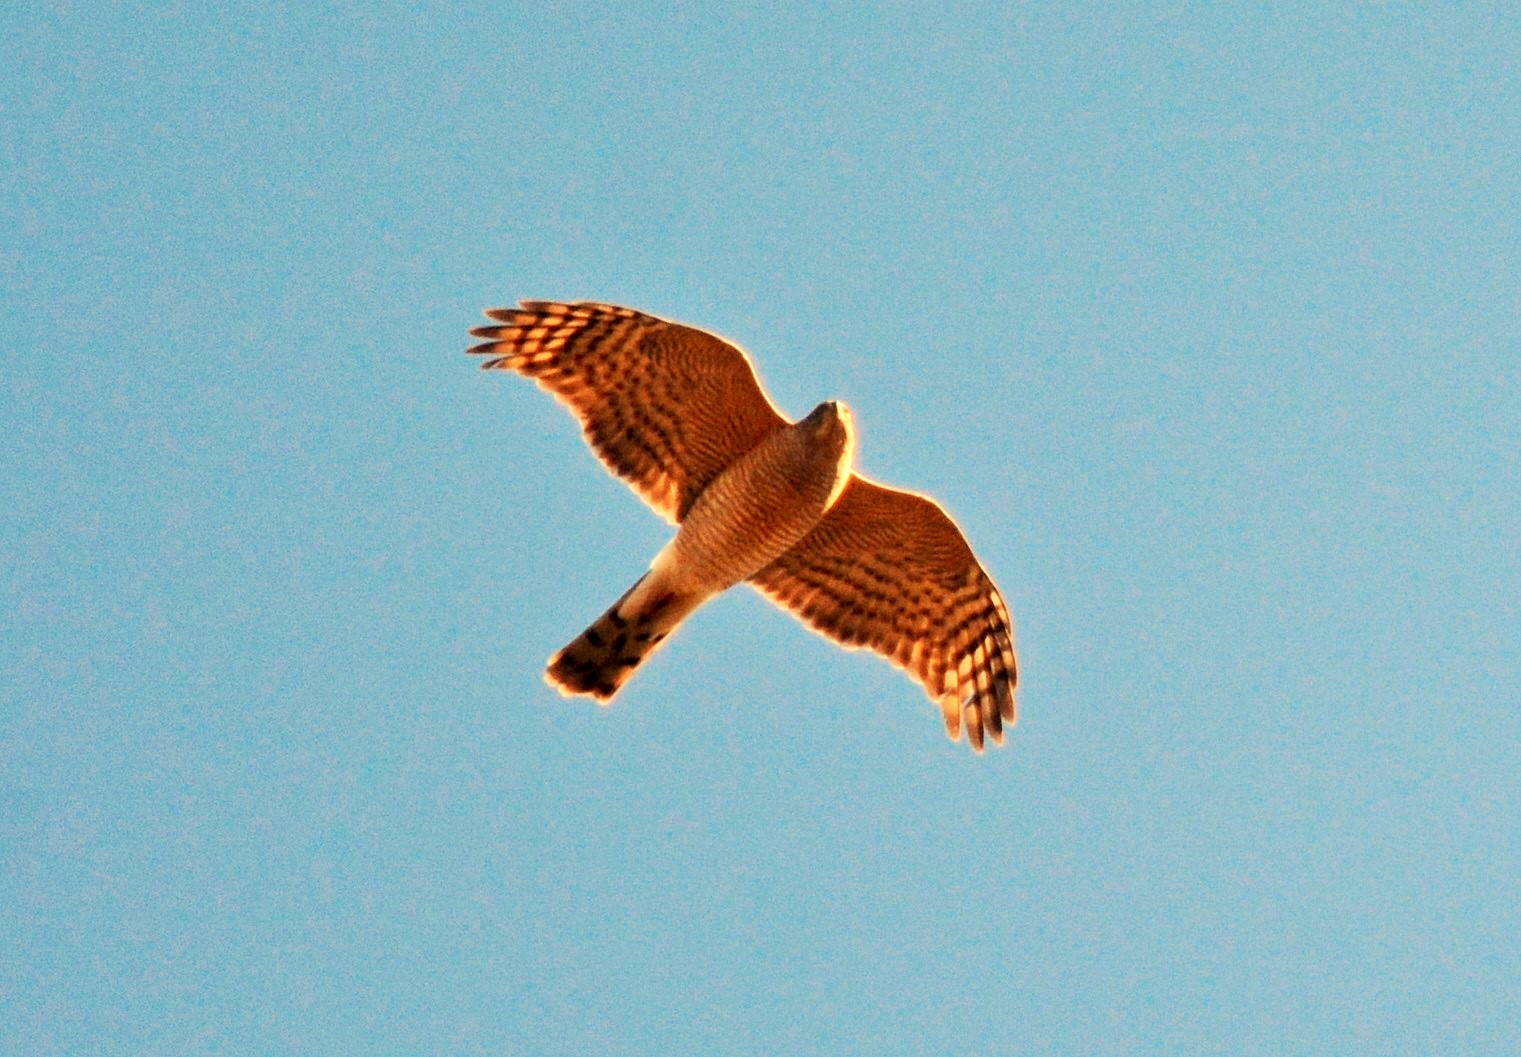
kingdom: Animalia
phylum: Chordata
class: Aves
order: Accipitriformes
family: Accipitridae
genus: Accipiter
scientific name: Accipiter nisus
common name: Eurasian sparrowhawk
